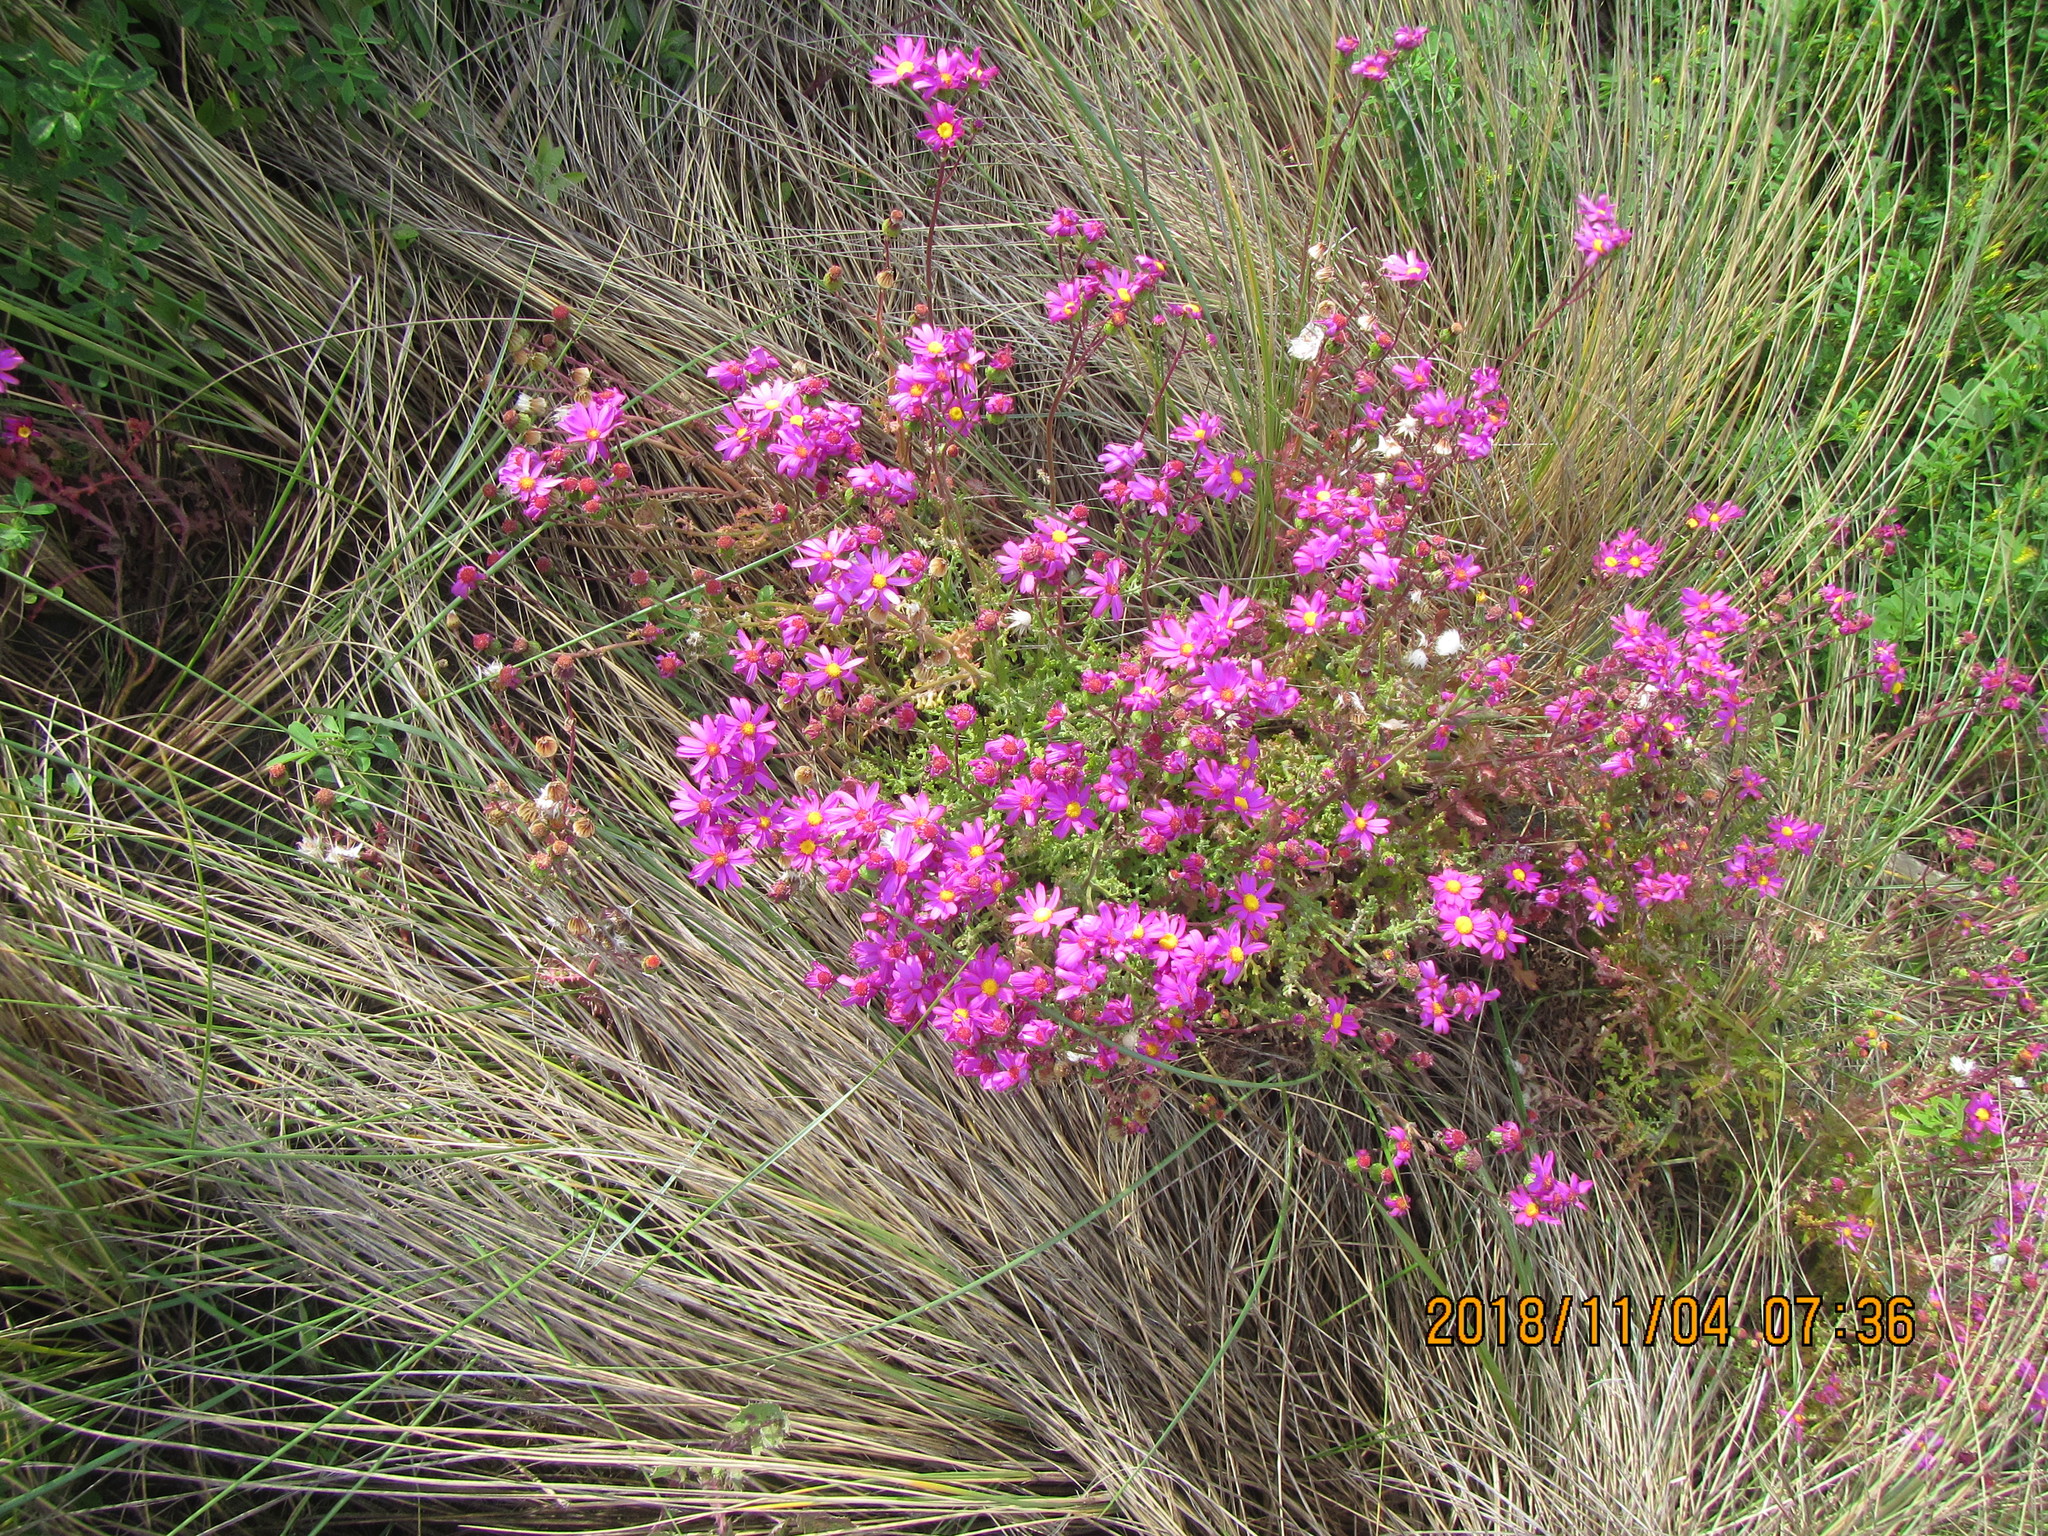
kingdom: Plantae
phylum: Tracheophyta
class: Magnoliopsida
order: Asterales
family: Asteraceae
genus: Senecio
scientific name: Senecio elegans
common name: Purple groundsel
